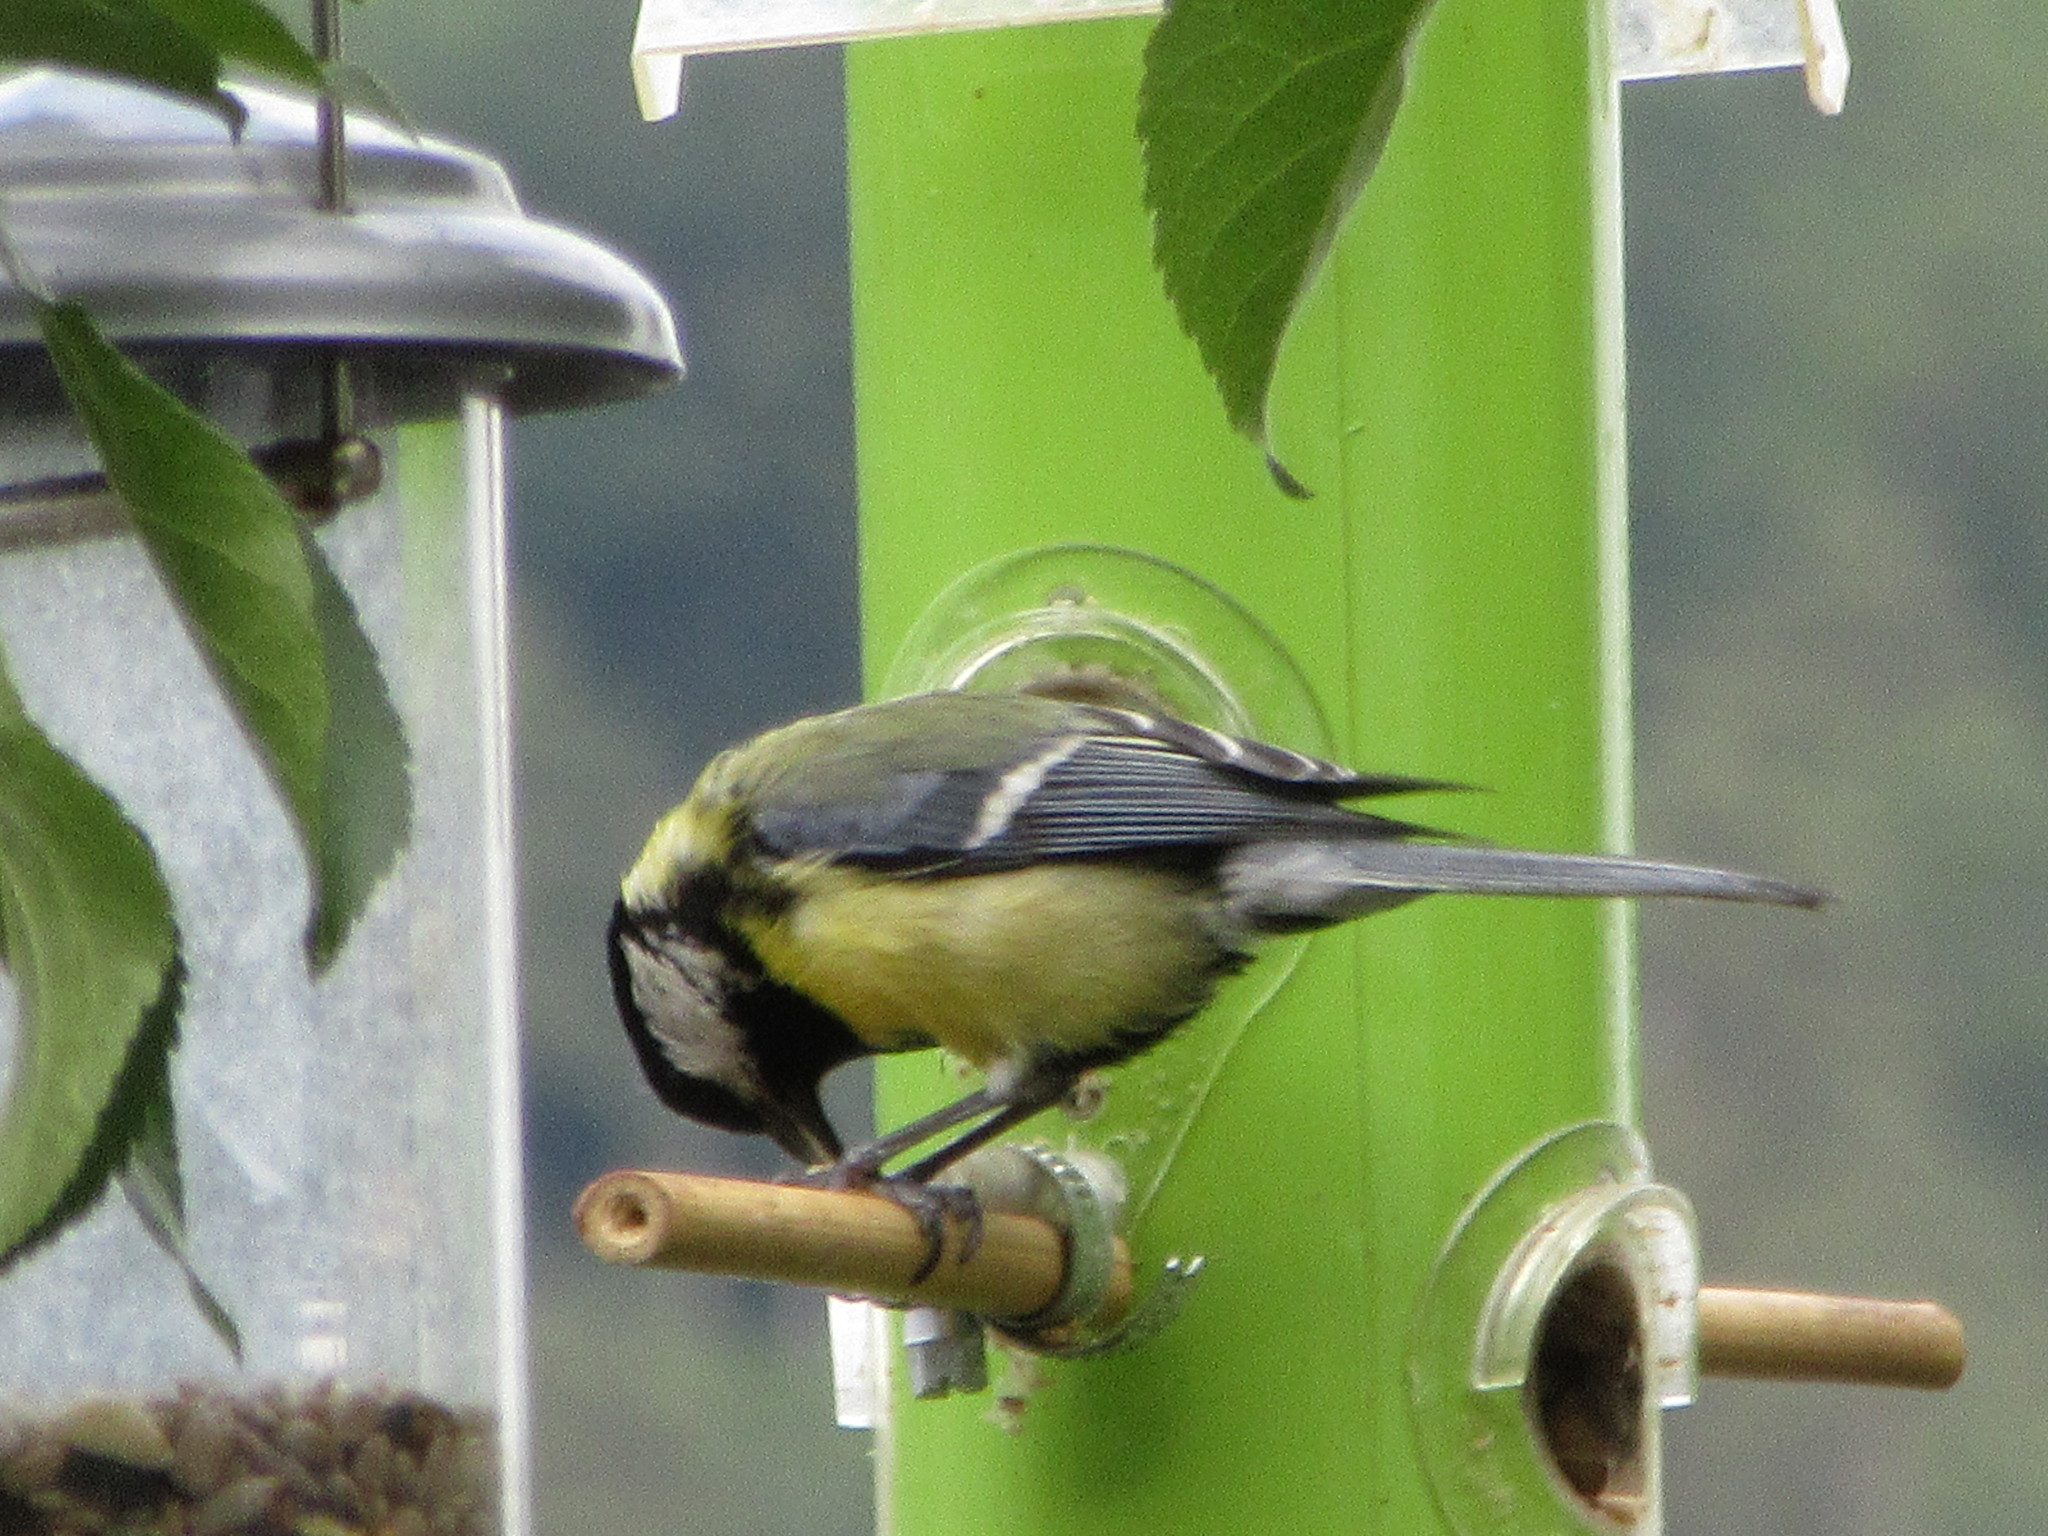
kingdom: Animalia
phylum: Chordata
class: Aves
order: Passeriformes
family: Paridae
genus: Parus
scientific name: Parus major
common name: Great tit
